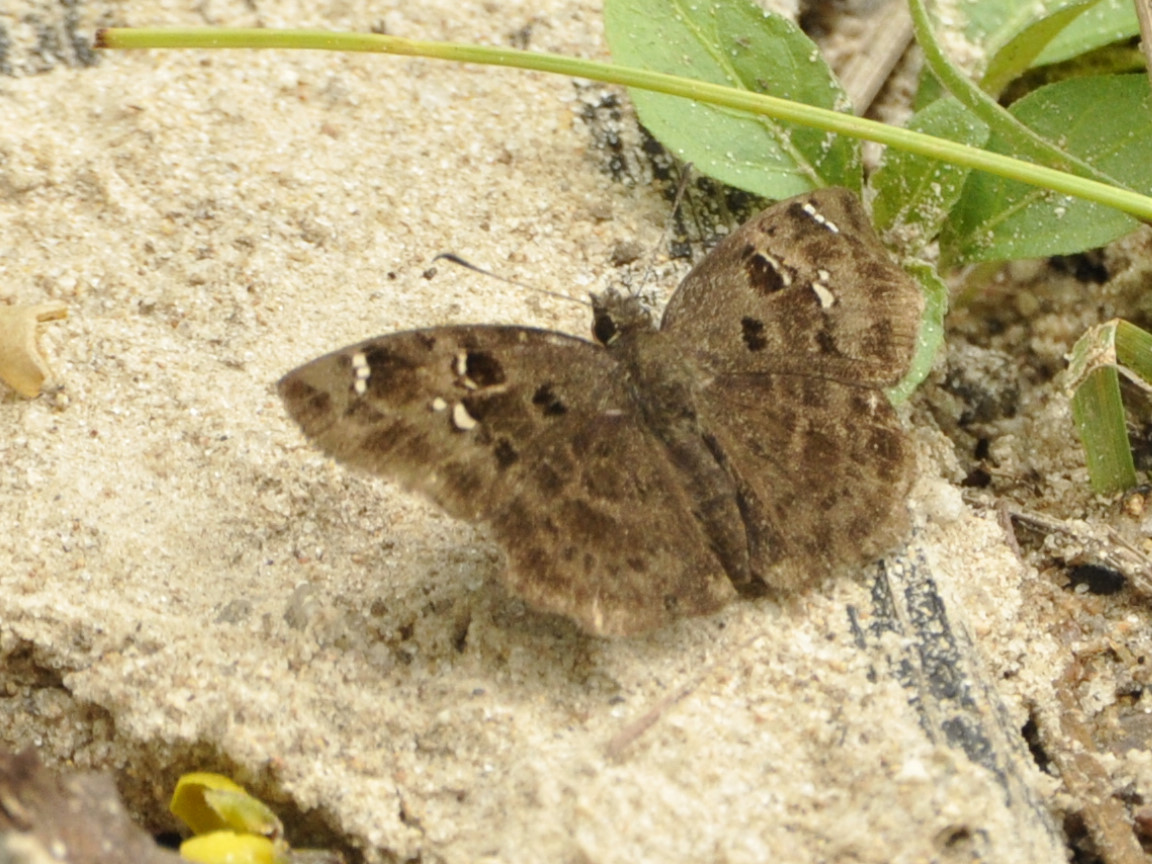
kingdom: Animalia
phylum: Arthropoda
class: Insecta
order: Lepidoptera
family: Hesperiidae
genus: Eretis
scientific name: Eretis rotundimacula
